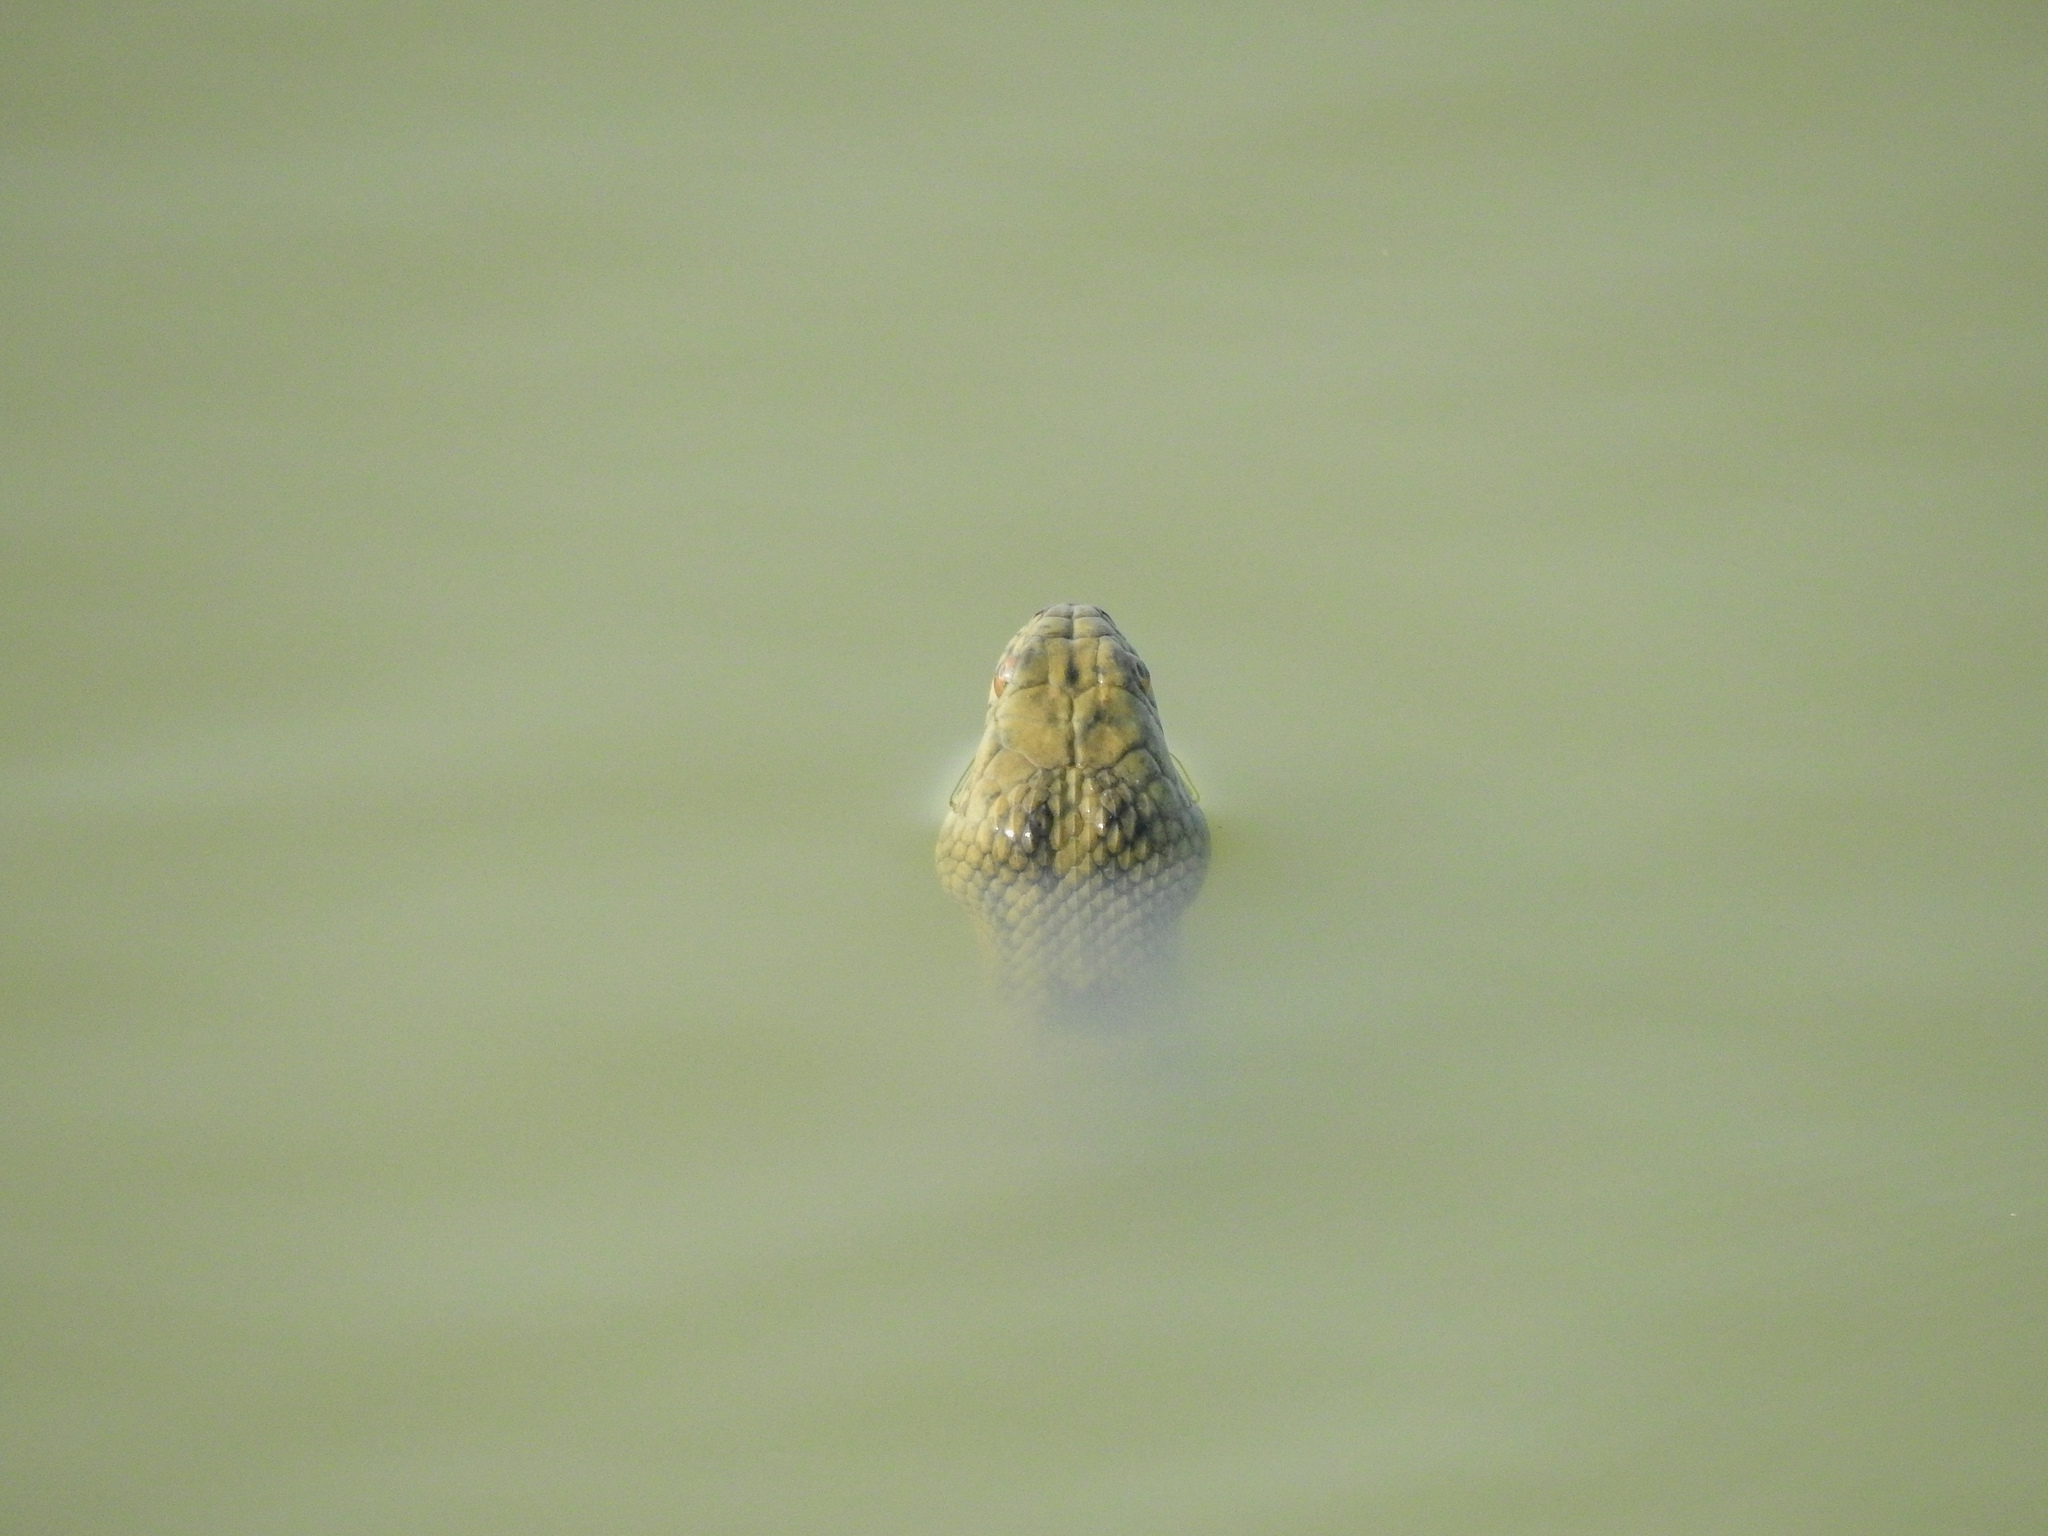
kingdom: Animalia
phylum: Chordata
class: Squamata
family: Colubridae
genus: Nerodia
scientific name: Nerodia rhombifer
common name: Diamondback water snake
